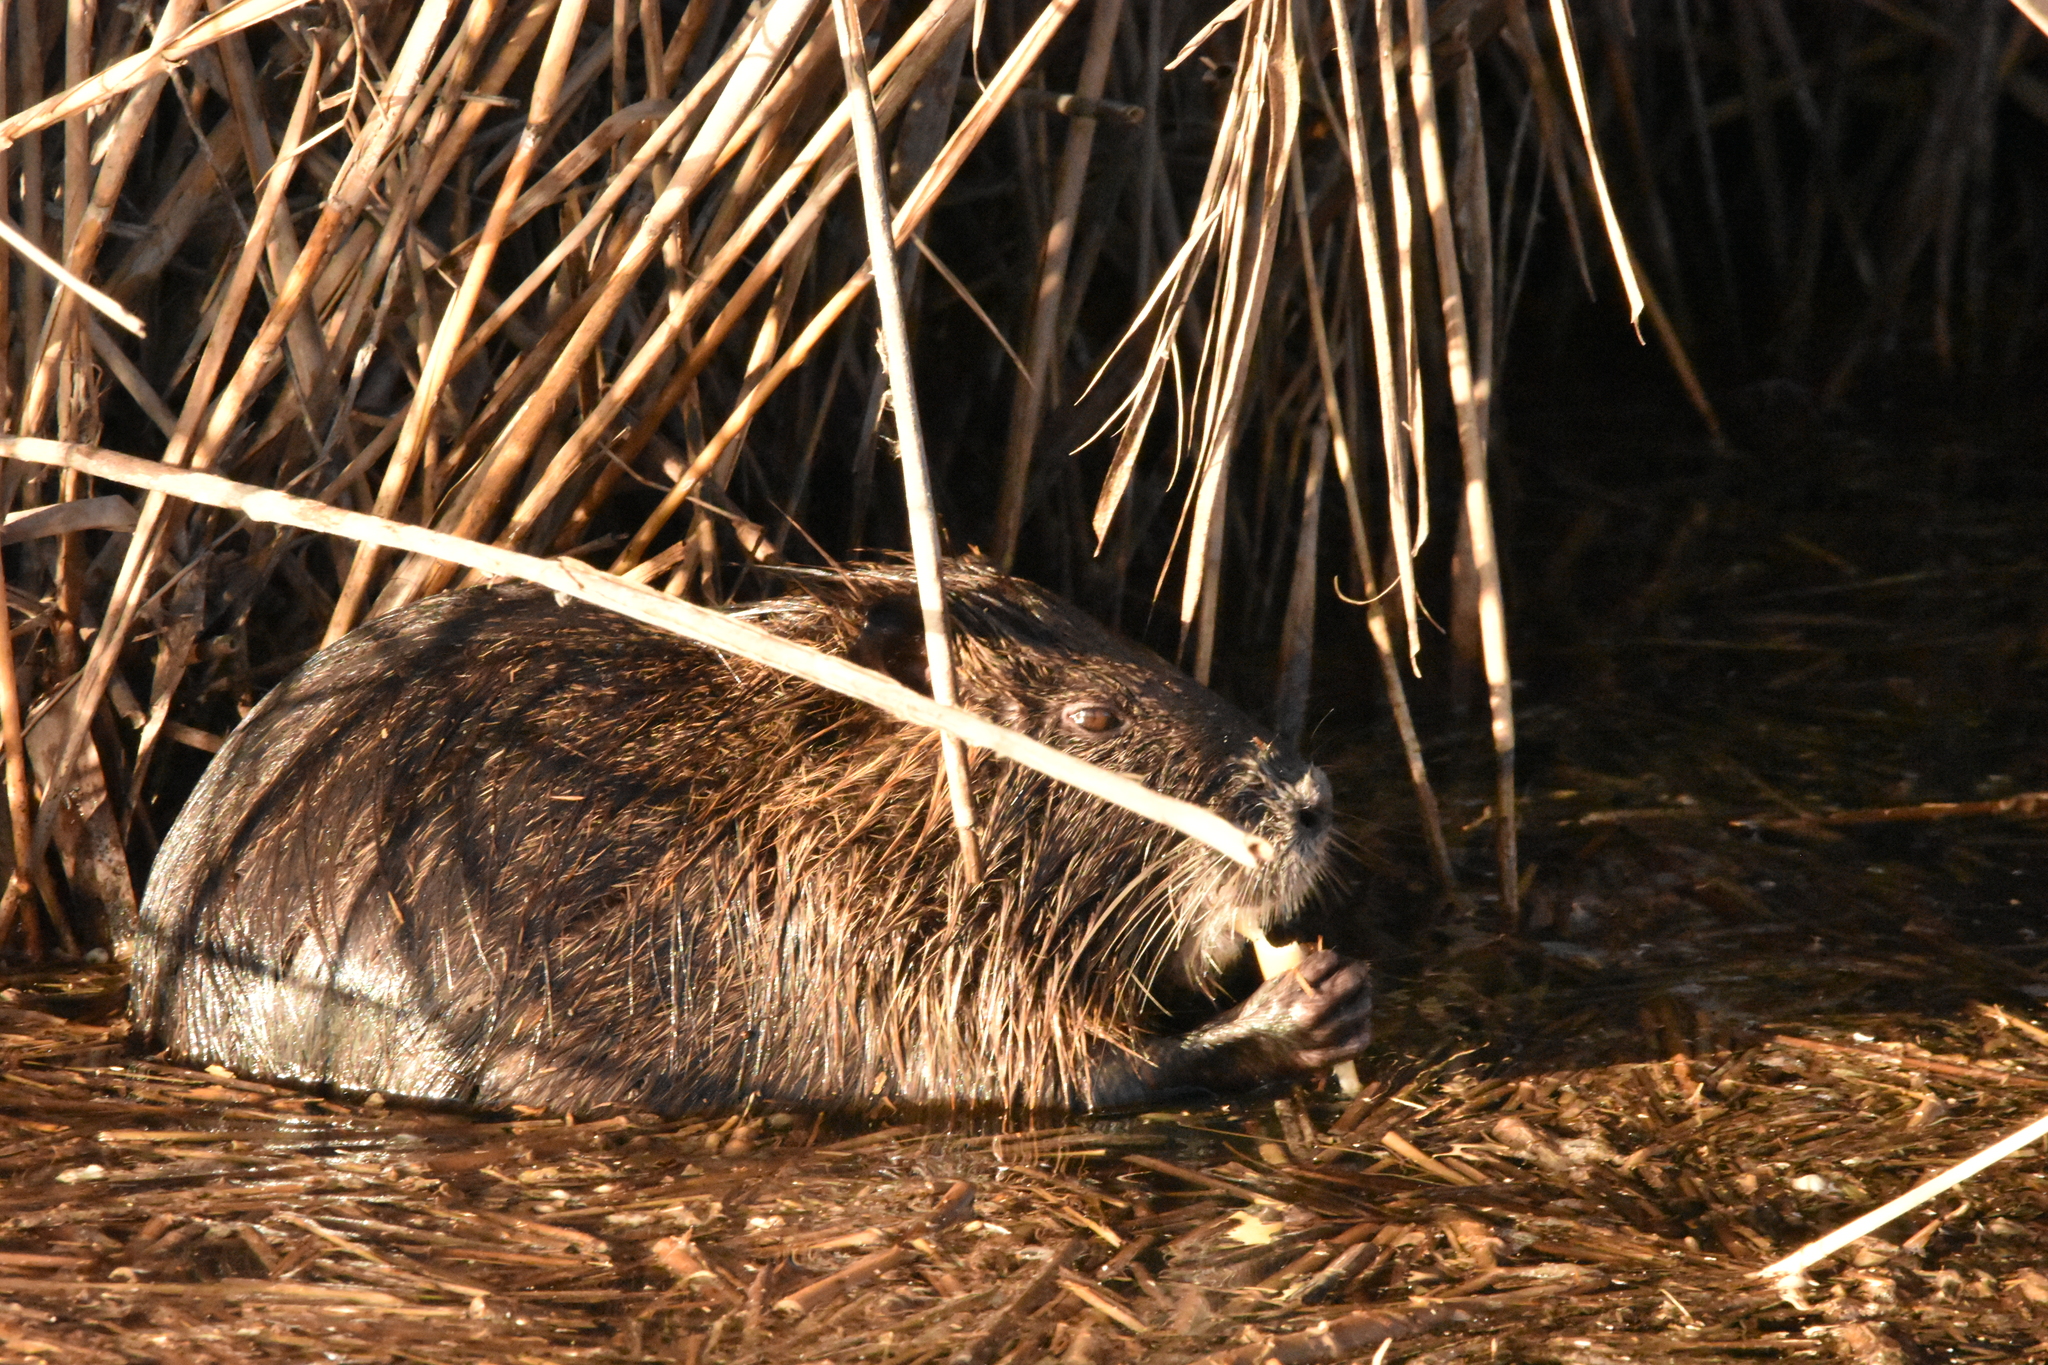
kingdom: Animalia
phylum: Chordata
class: Mammalia
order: Rodentia
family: Myocastoridae
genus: Myocastor
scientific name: Myocastor coypus
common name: Coypu
